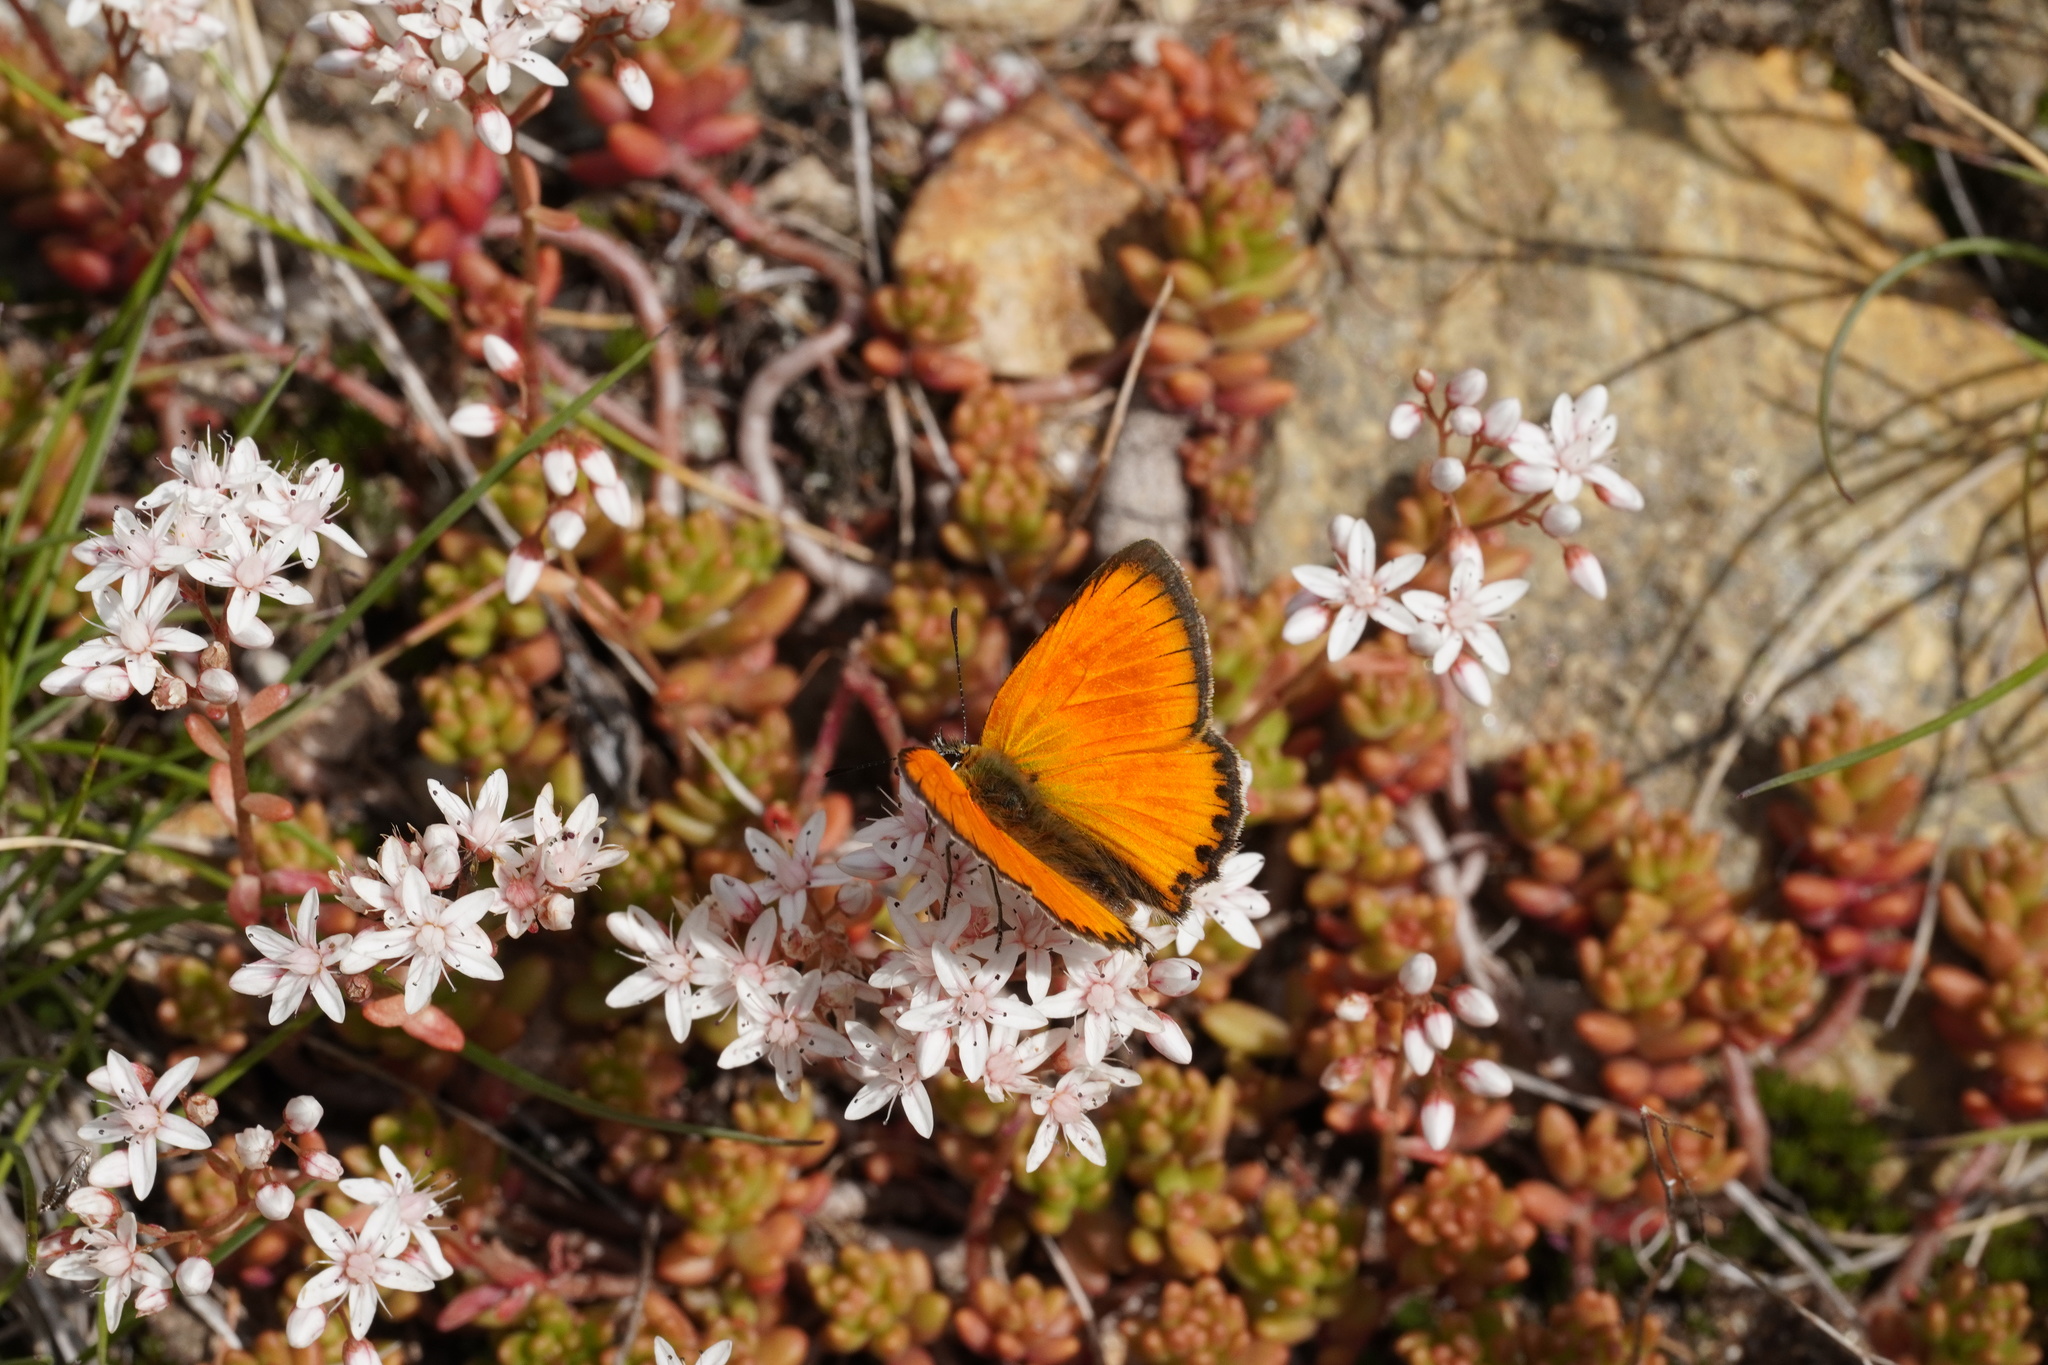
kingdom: Animalia
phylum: Arthropoda
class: Insecta
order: Lepidoptera
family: Lycaenidae
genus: Lycaena
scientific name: Lycaena virgaureae
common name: Scarce copper
